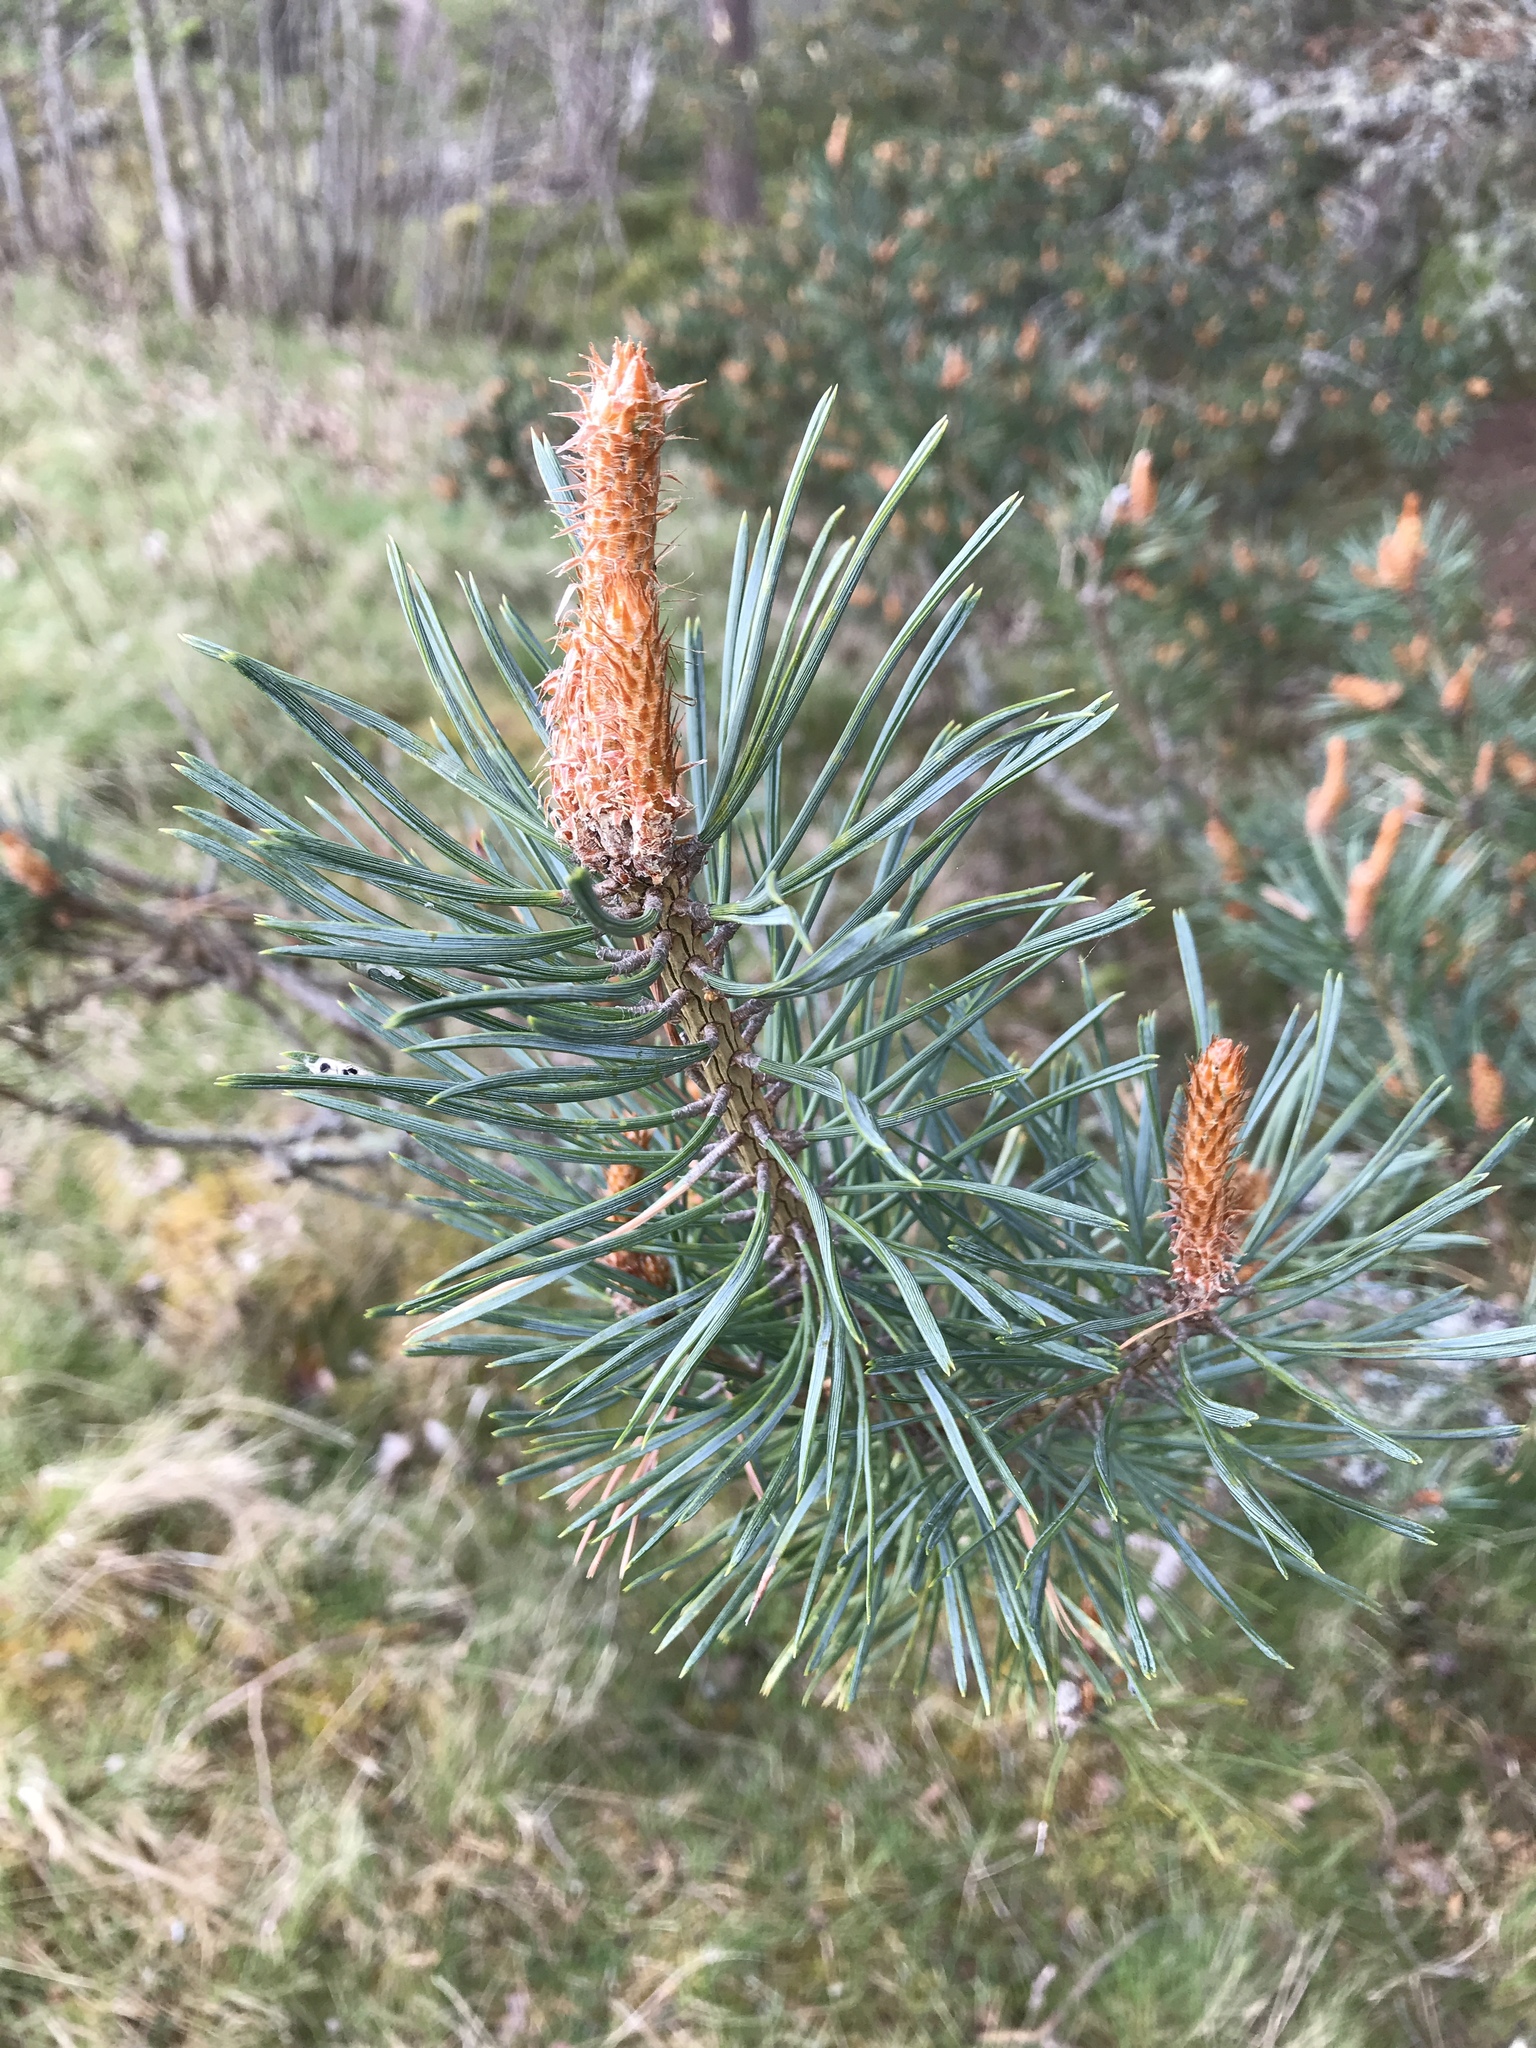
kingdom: Plantae
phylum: Tracheophyta
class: Pinopsida
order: Pinales
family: Pinaceae
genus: Pinus
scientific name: Pinus sylvestris
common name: Scots pine
